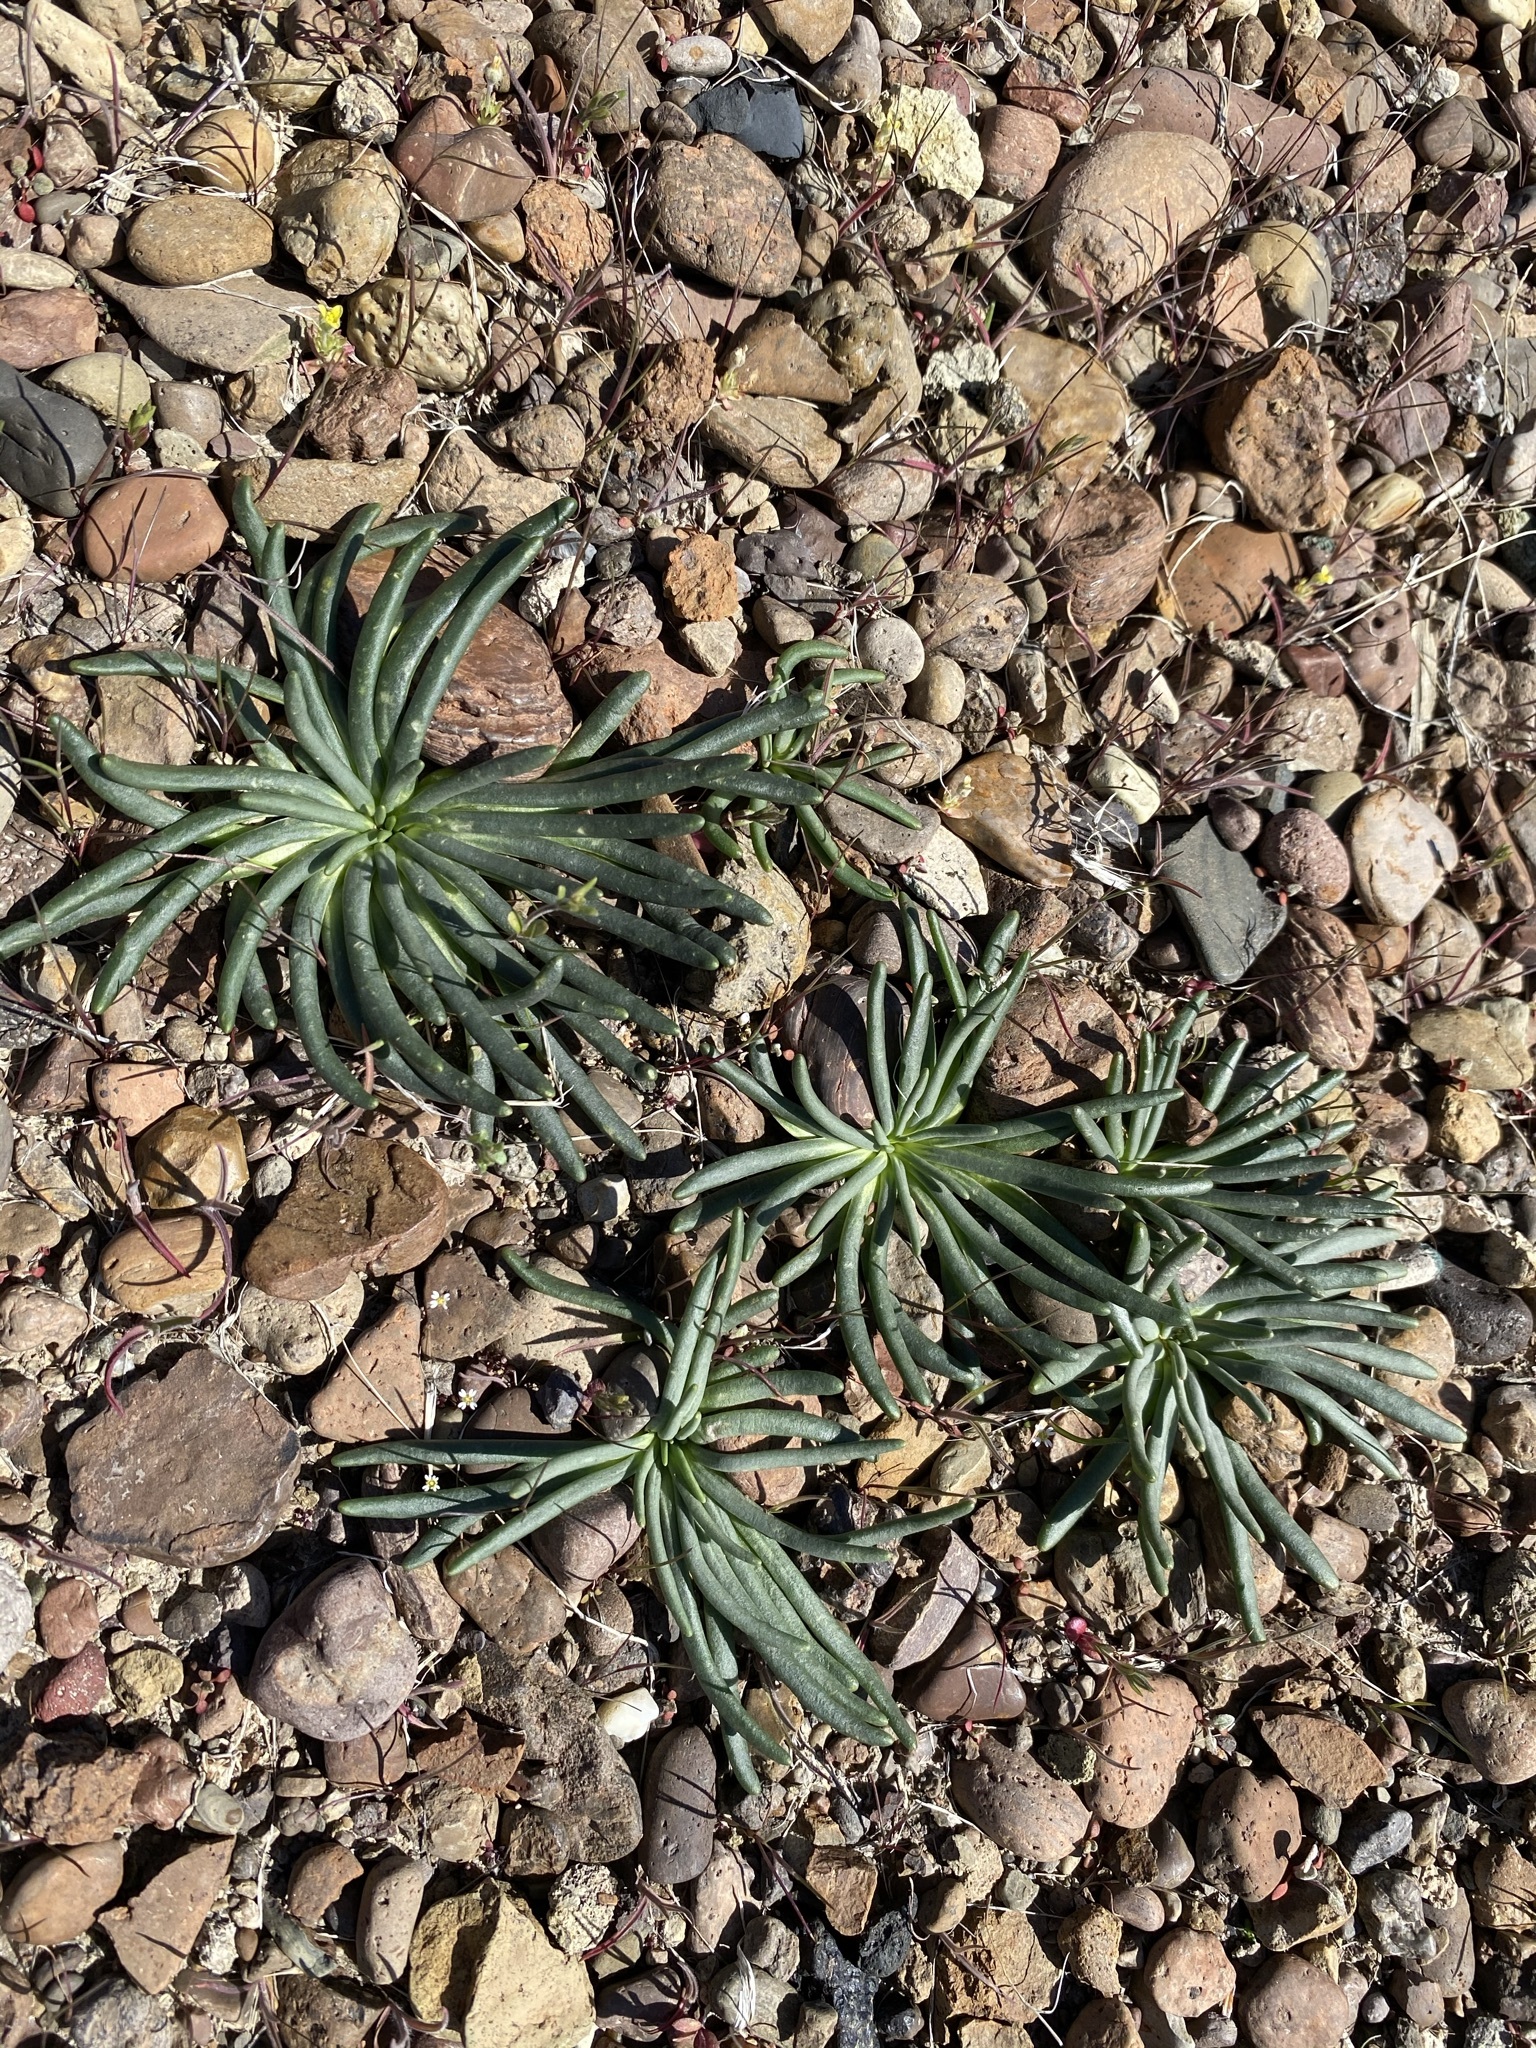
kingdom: Plantae
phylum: Tracheophyta
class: Magnoliopsida
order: Caryophyllales
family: Montiaceae
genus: Lewisia
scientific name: Lewisia rediviva
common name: Bitter-root
